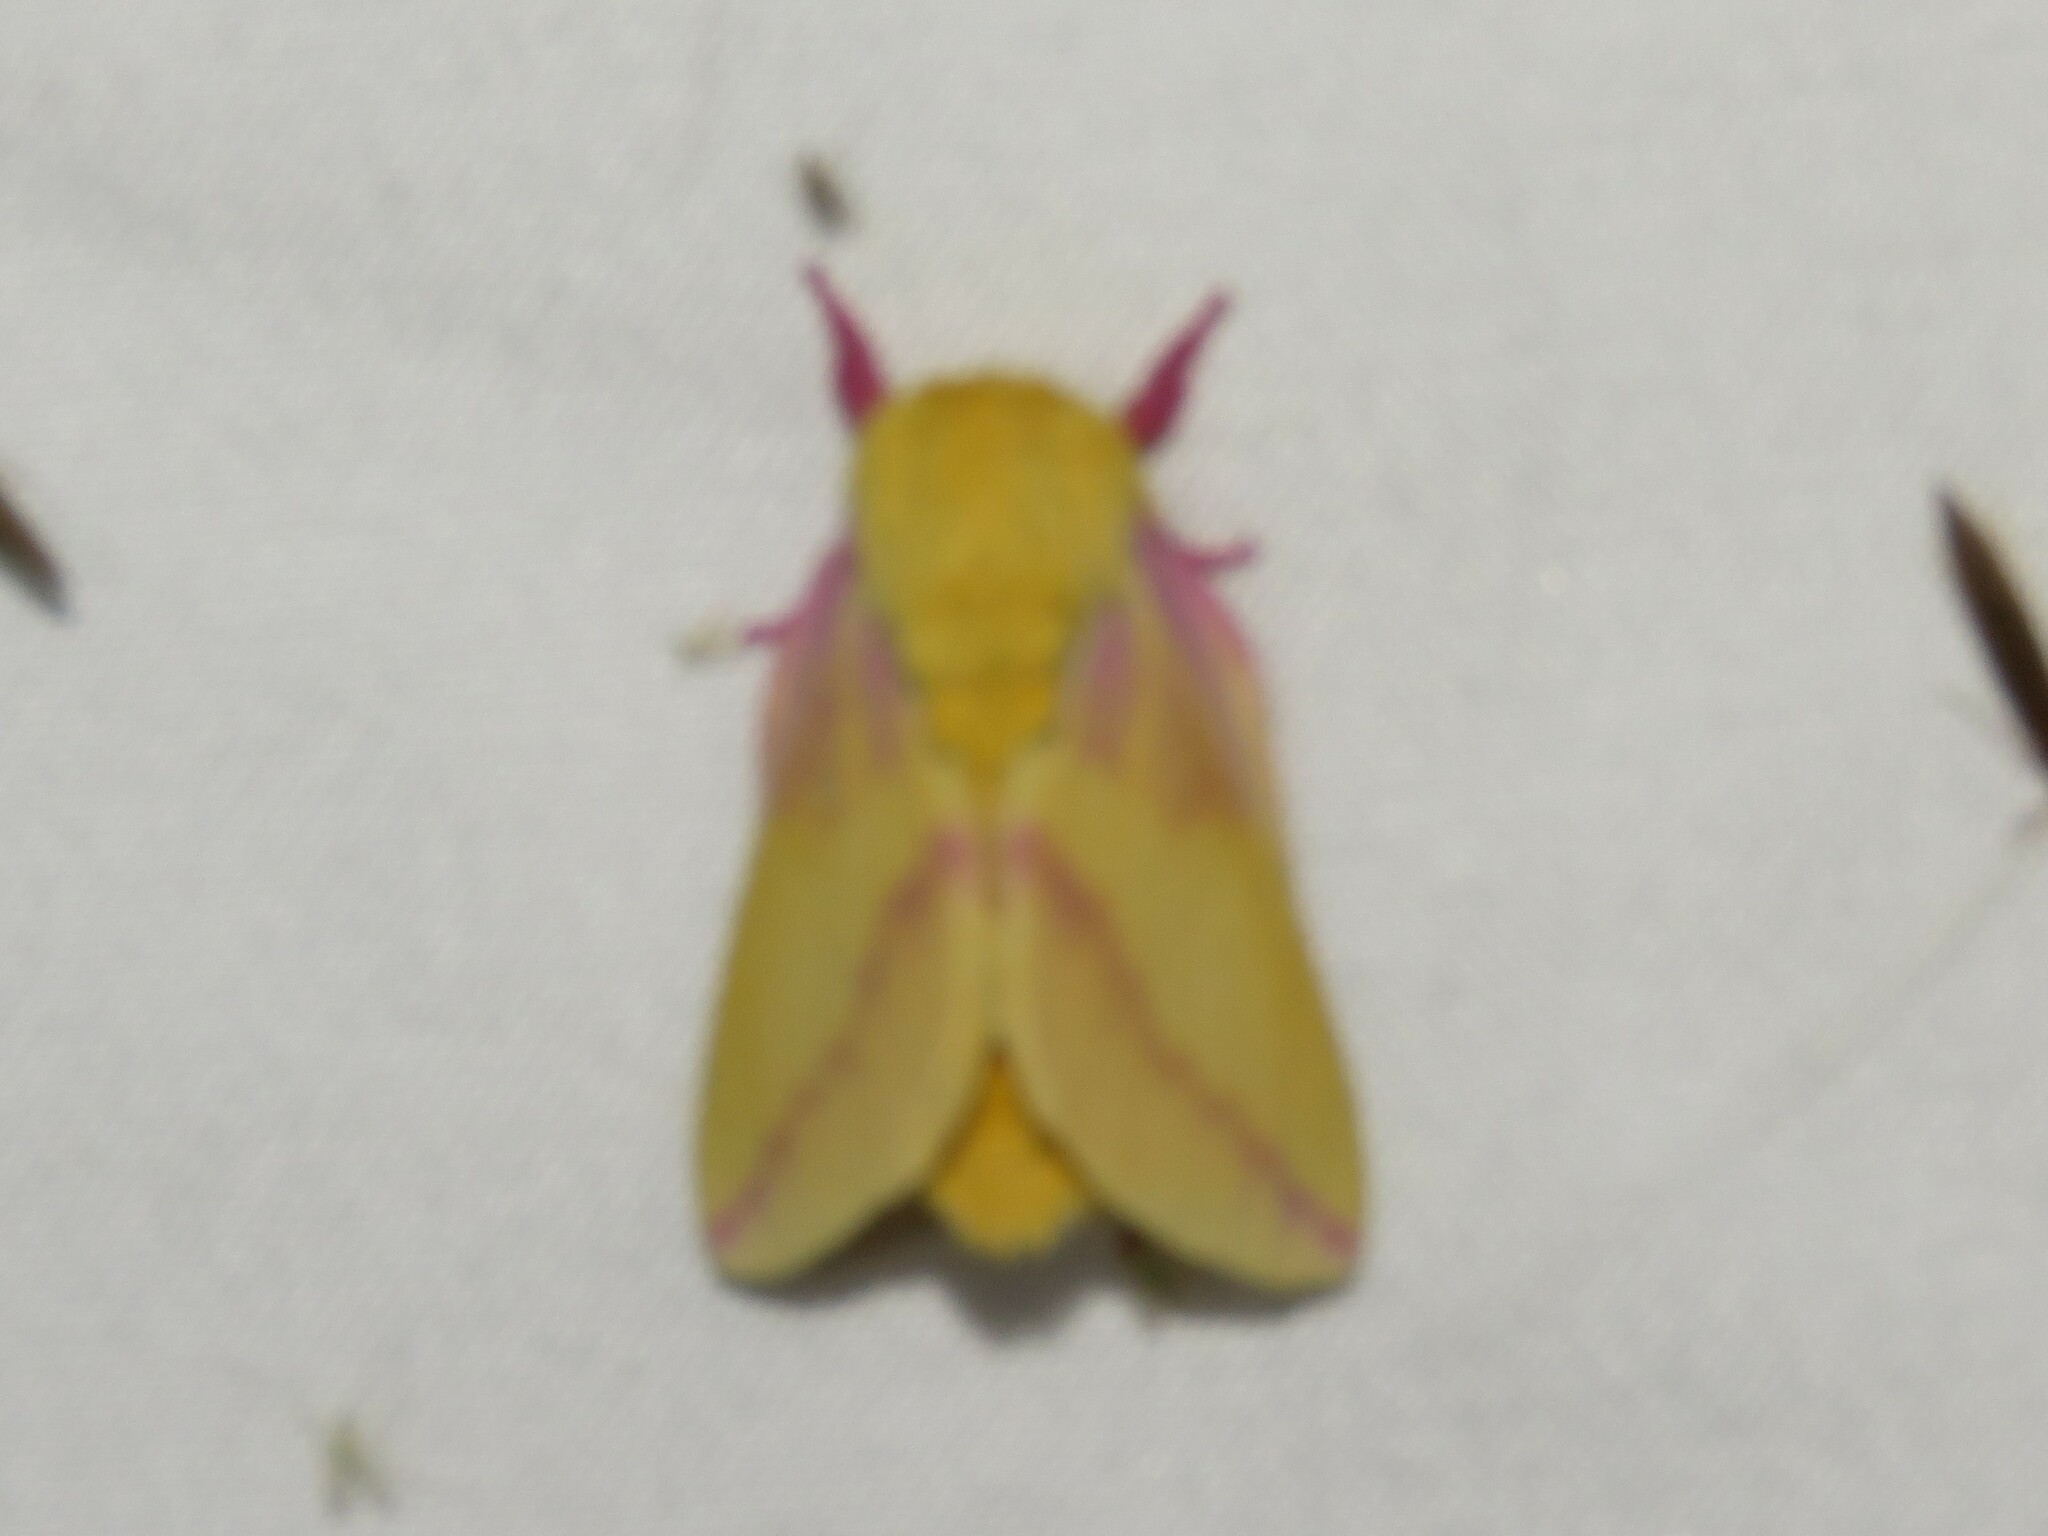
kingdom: Animalia
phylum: Arthropoda
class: Insecta
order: Lepidoptera
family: Saturniidae
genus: Dryocampa
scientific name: Dryocampa rubicunda
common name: Rosy maple moth
